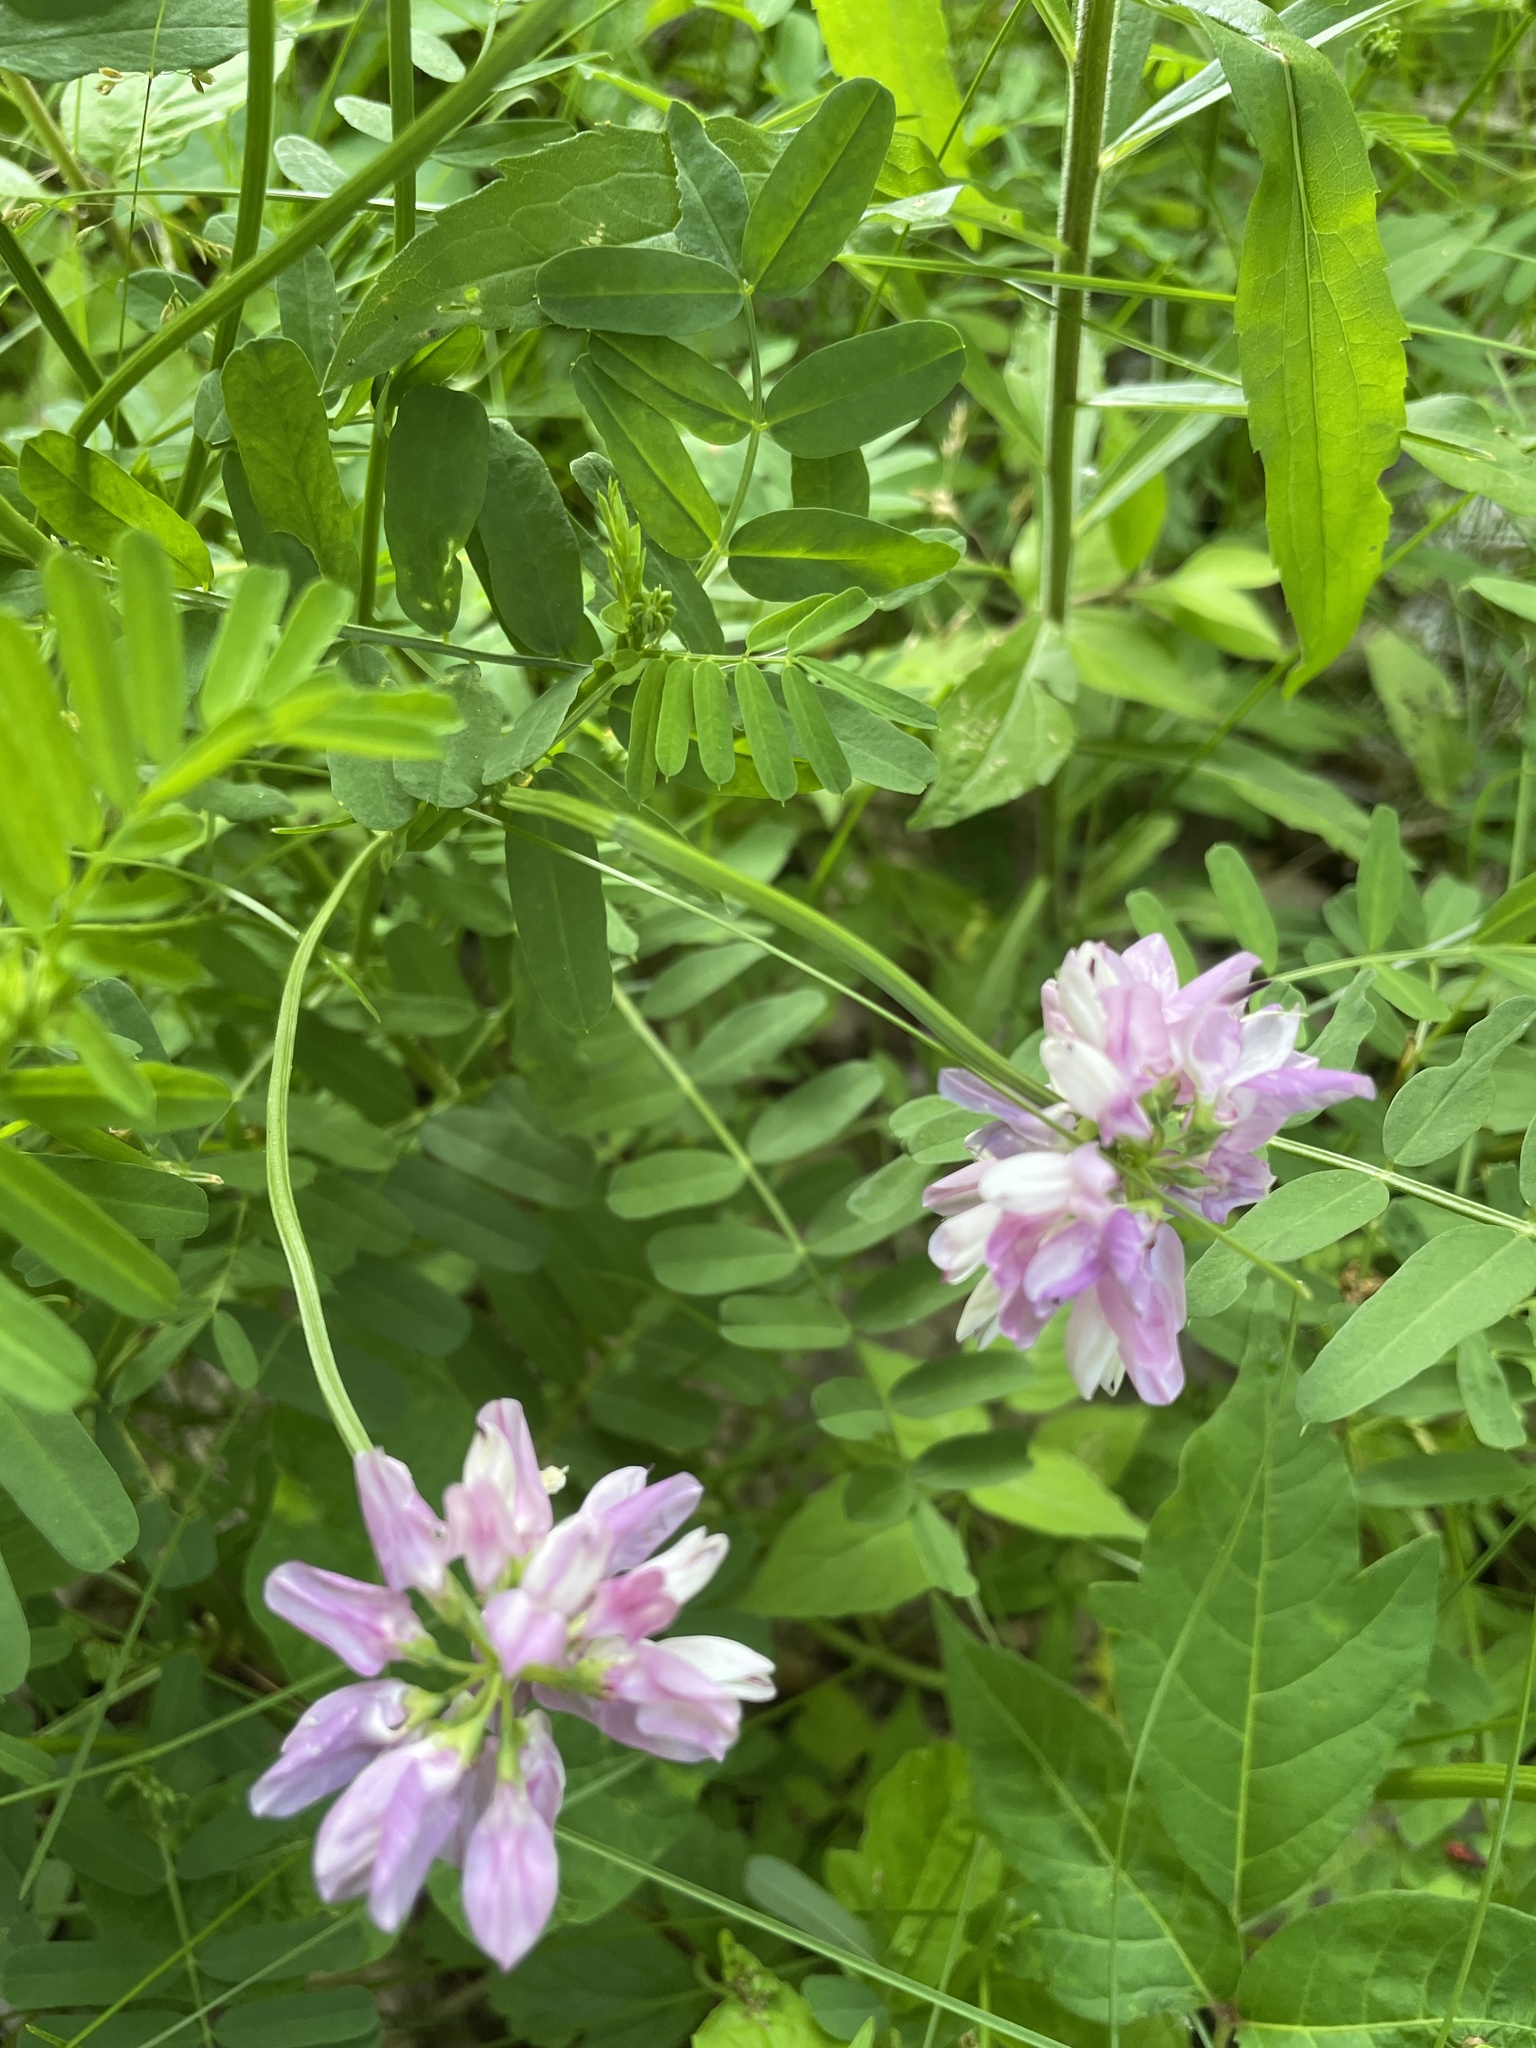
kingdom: Plantae
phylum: Tracheophyta
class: Magnoliopsida
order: Fabales
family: Fabaceae
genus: Coronilla
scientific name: Coronilla varia
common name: Crownvetch
